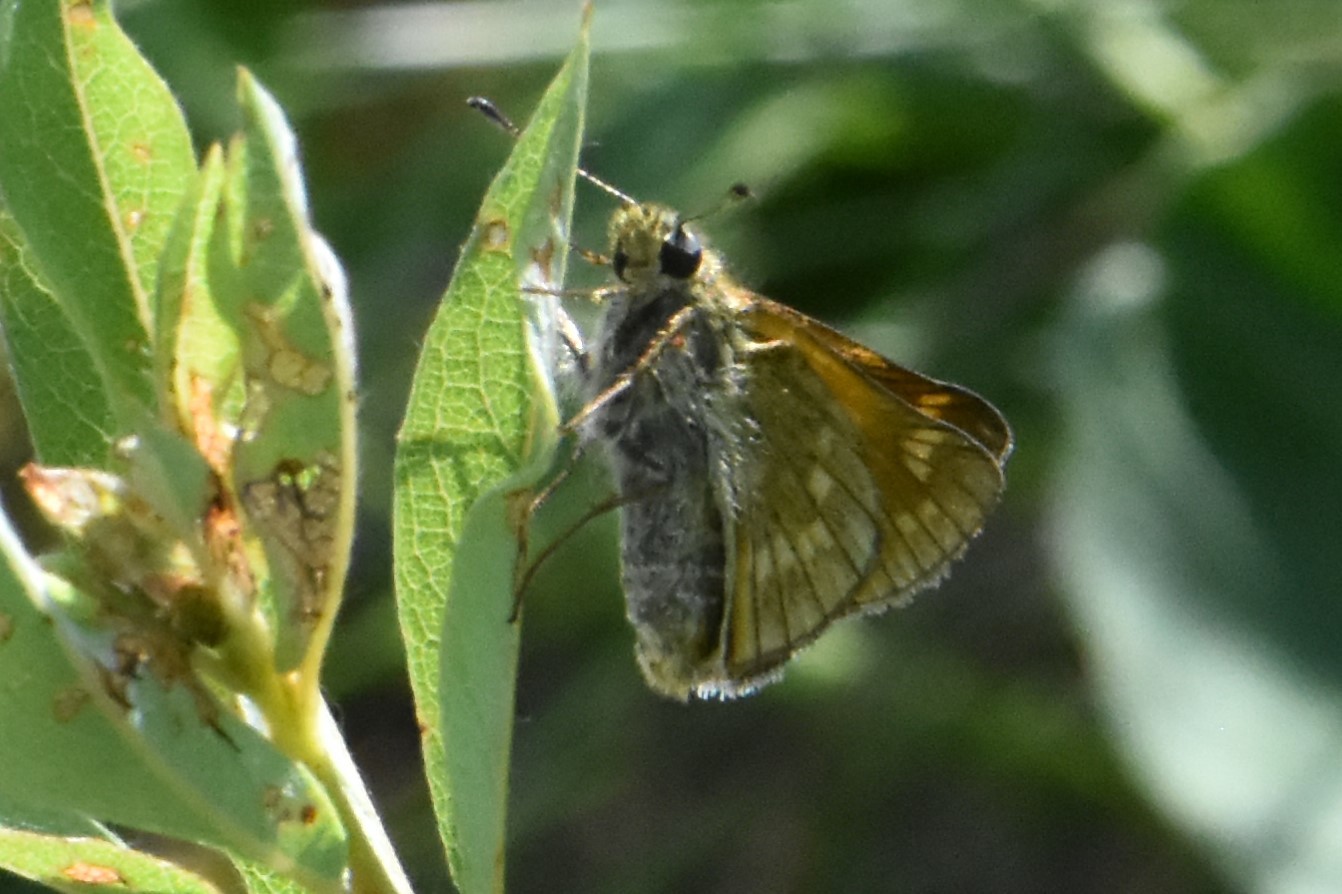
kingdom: Animalia
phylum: Arthropoda
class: Insecta
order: Lepidoptera
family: Hesperiidae
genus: Ochlodes
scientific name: Ochlodes venata
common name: Large skipper
